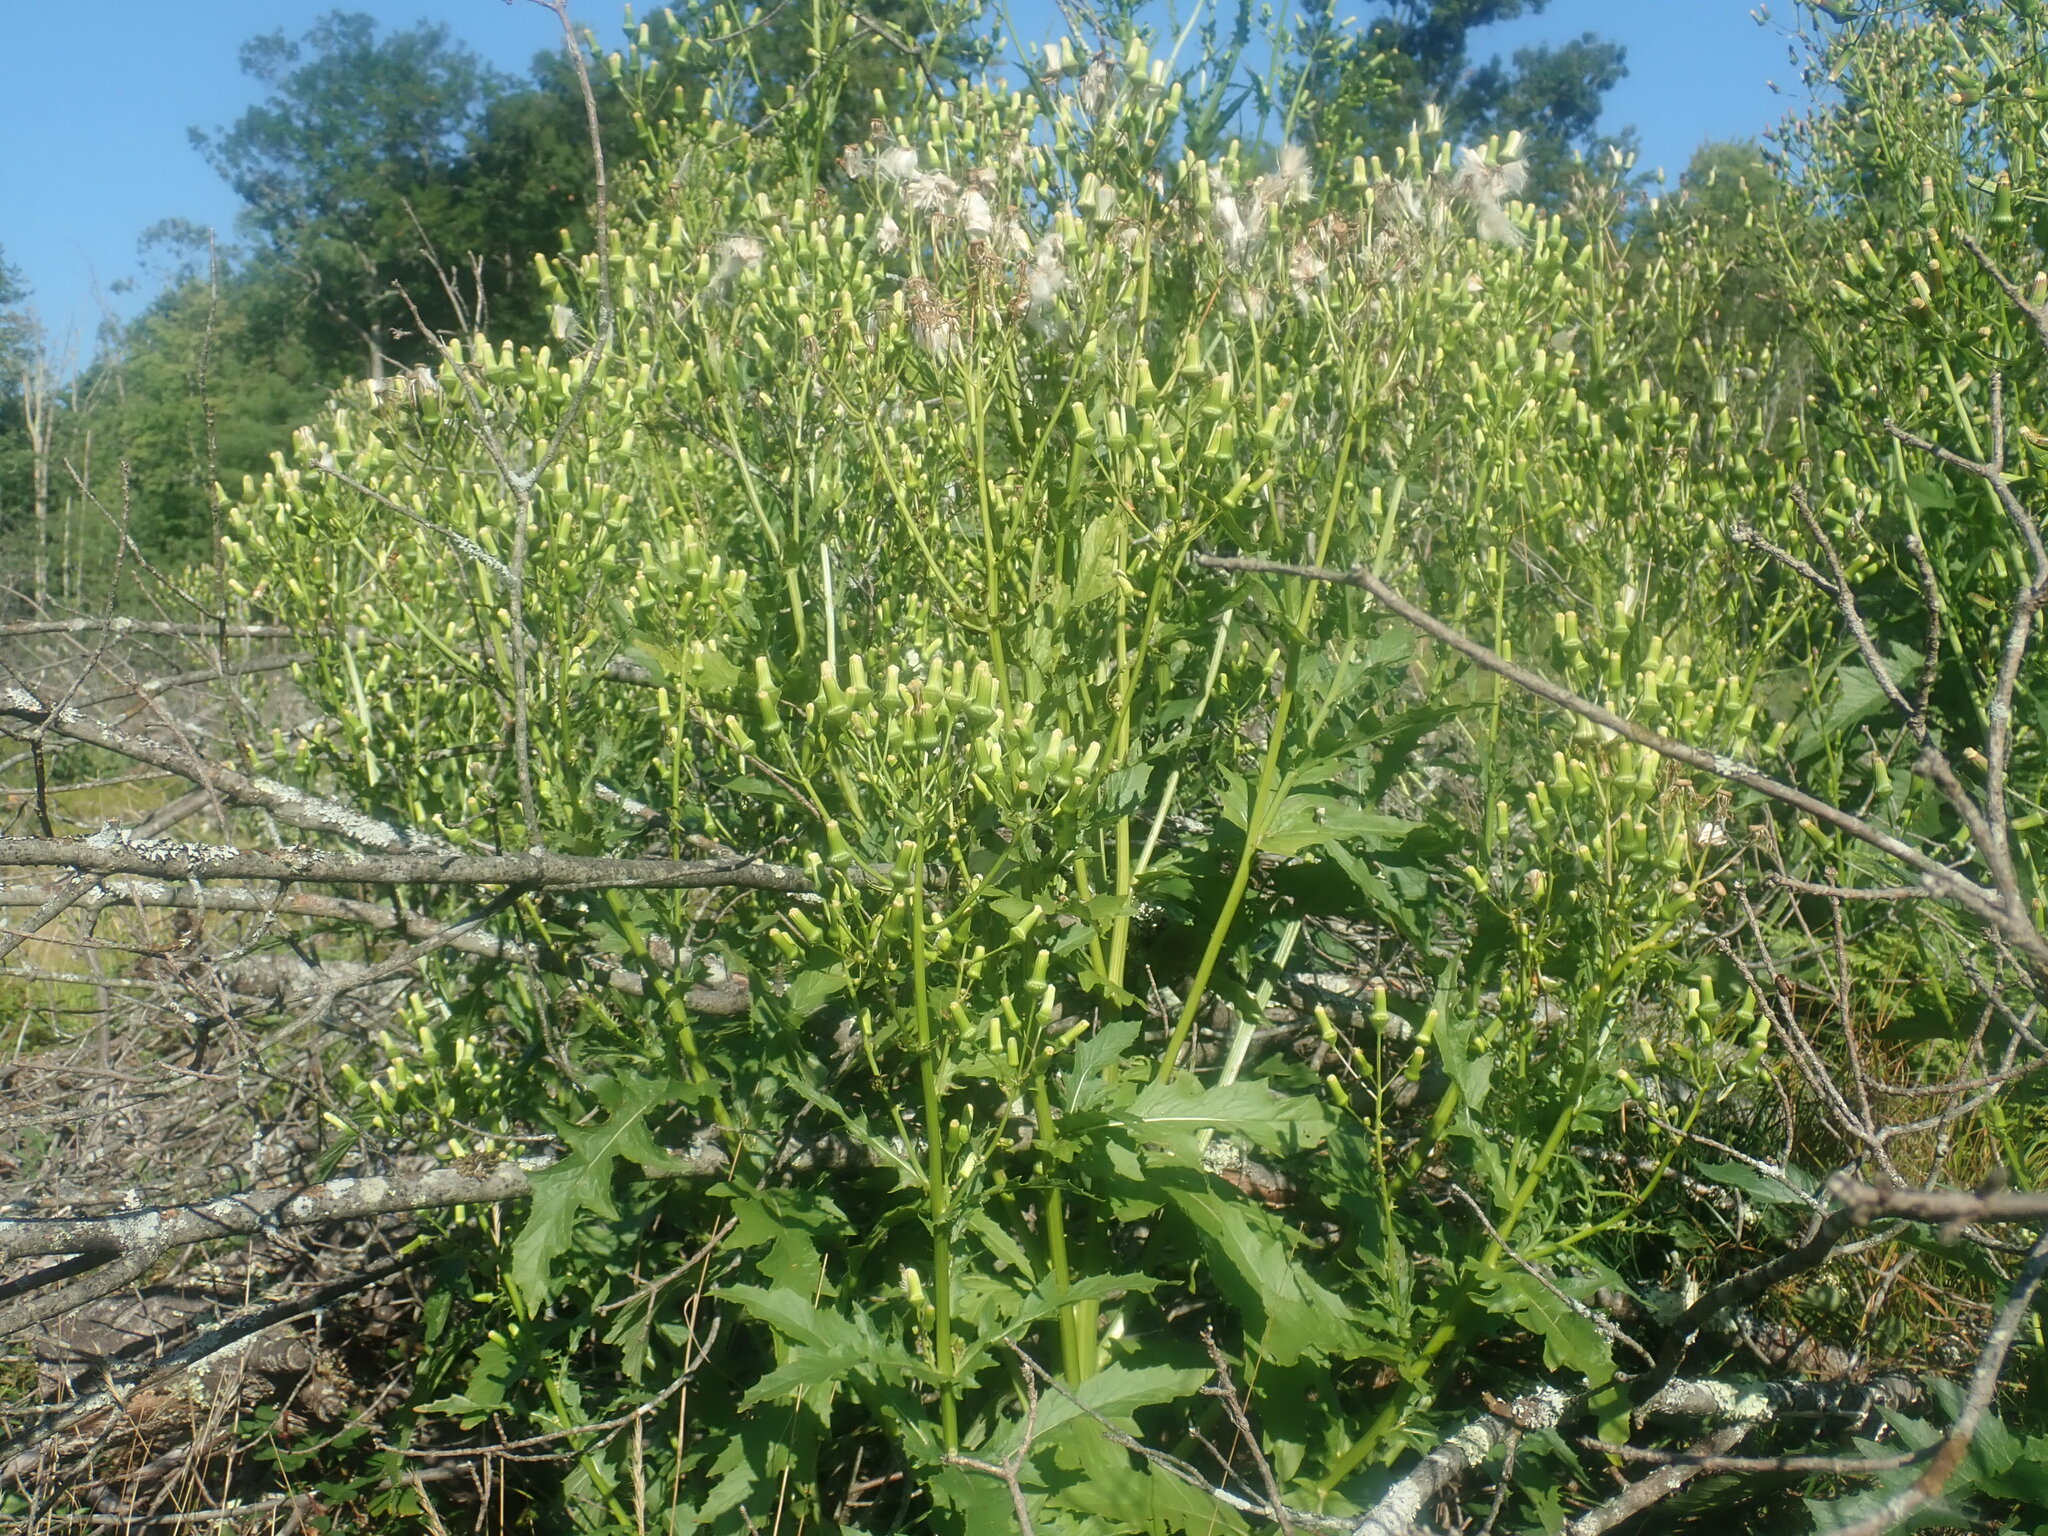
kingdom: Plantae
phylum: Tracheophyta
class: Magnoliopsida
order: Asterales
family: Asteraceae
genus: Erechtites
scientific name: Erechtites hieraciifolius
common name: American burnweed
